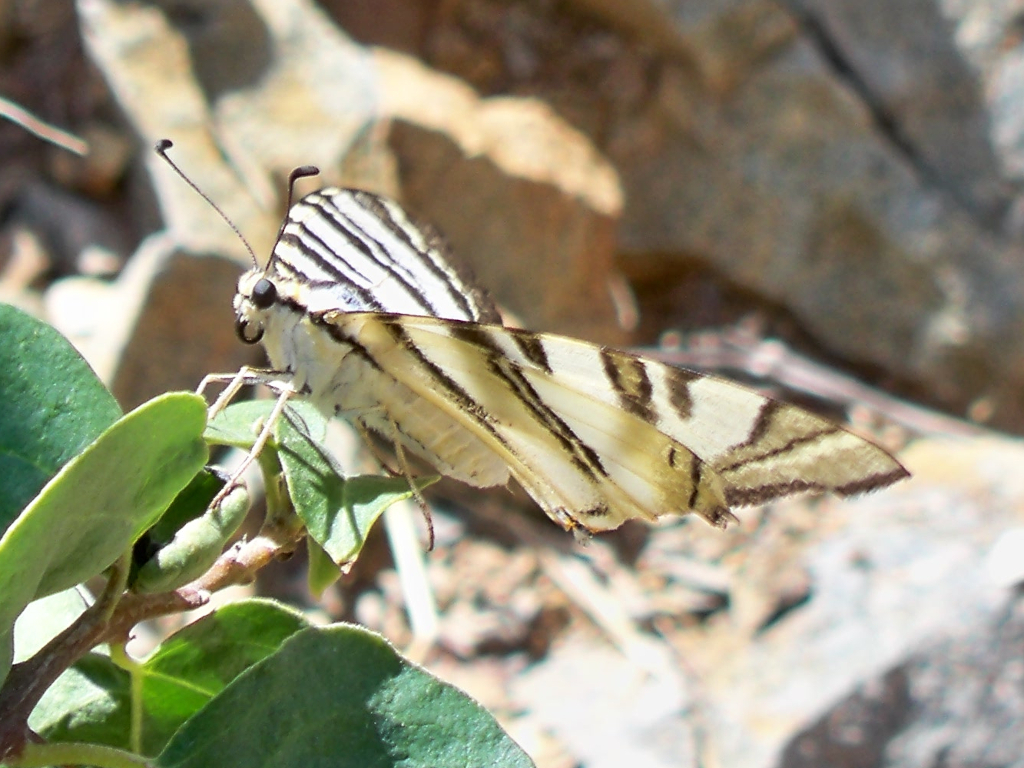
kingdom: Animalia
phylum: Arthropoda
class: Insecta
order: Lepidoptera
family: Papilionidae
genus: Iphiclides
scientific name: Iphiclides feisthamelii
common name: Iberian scarce swallowtail
